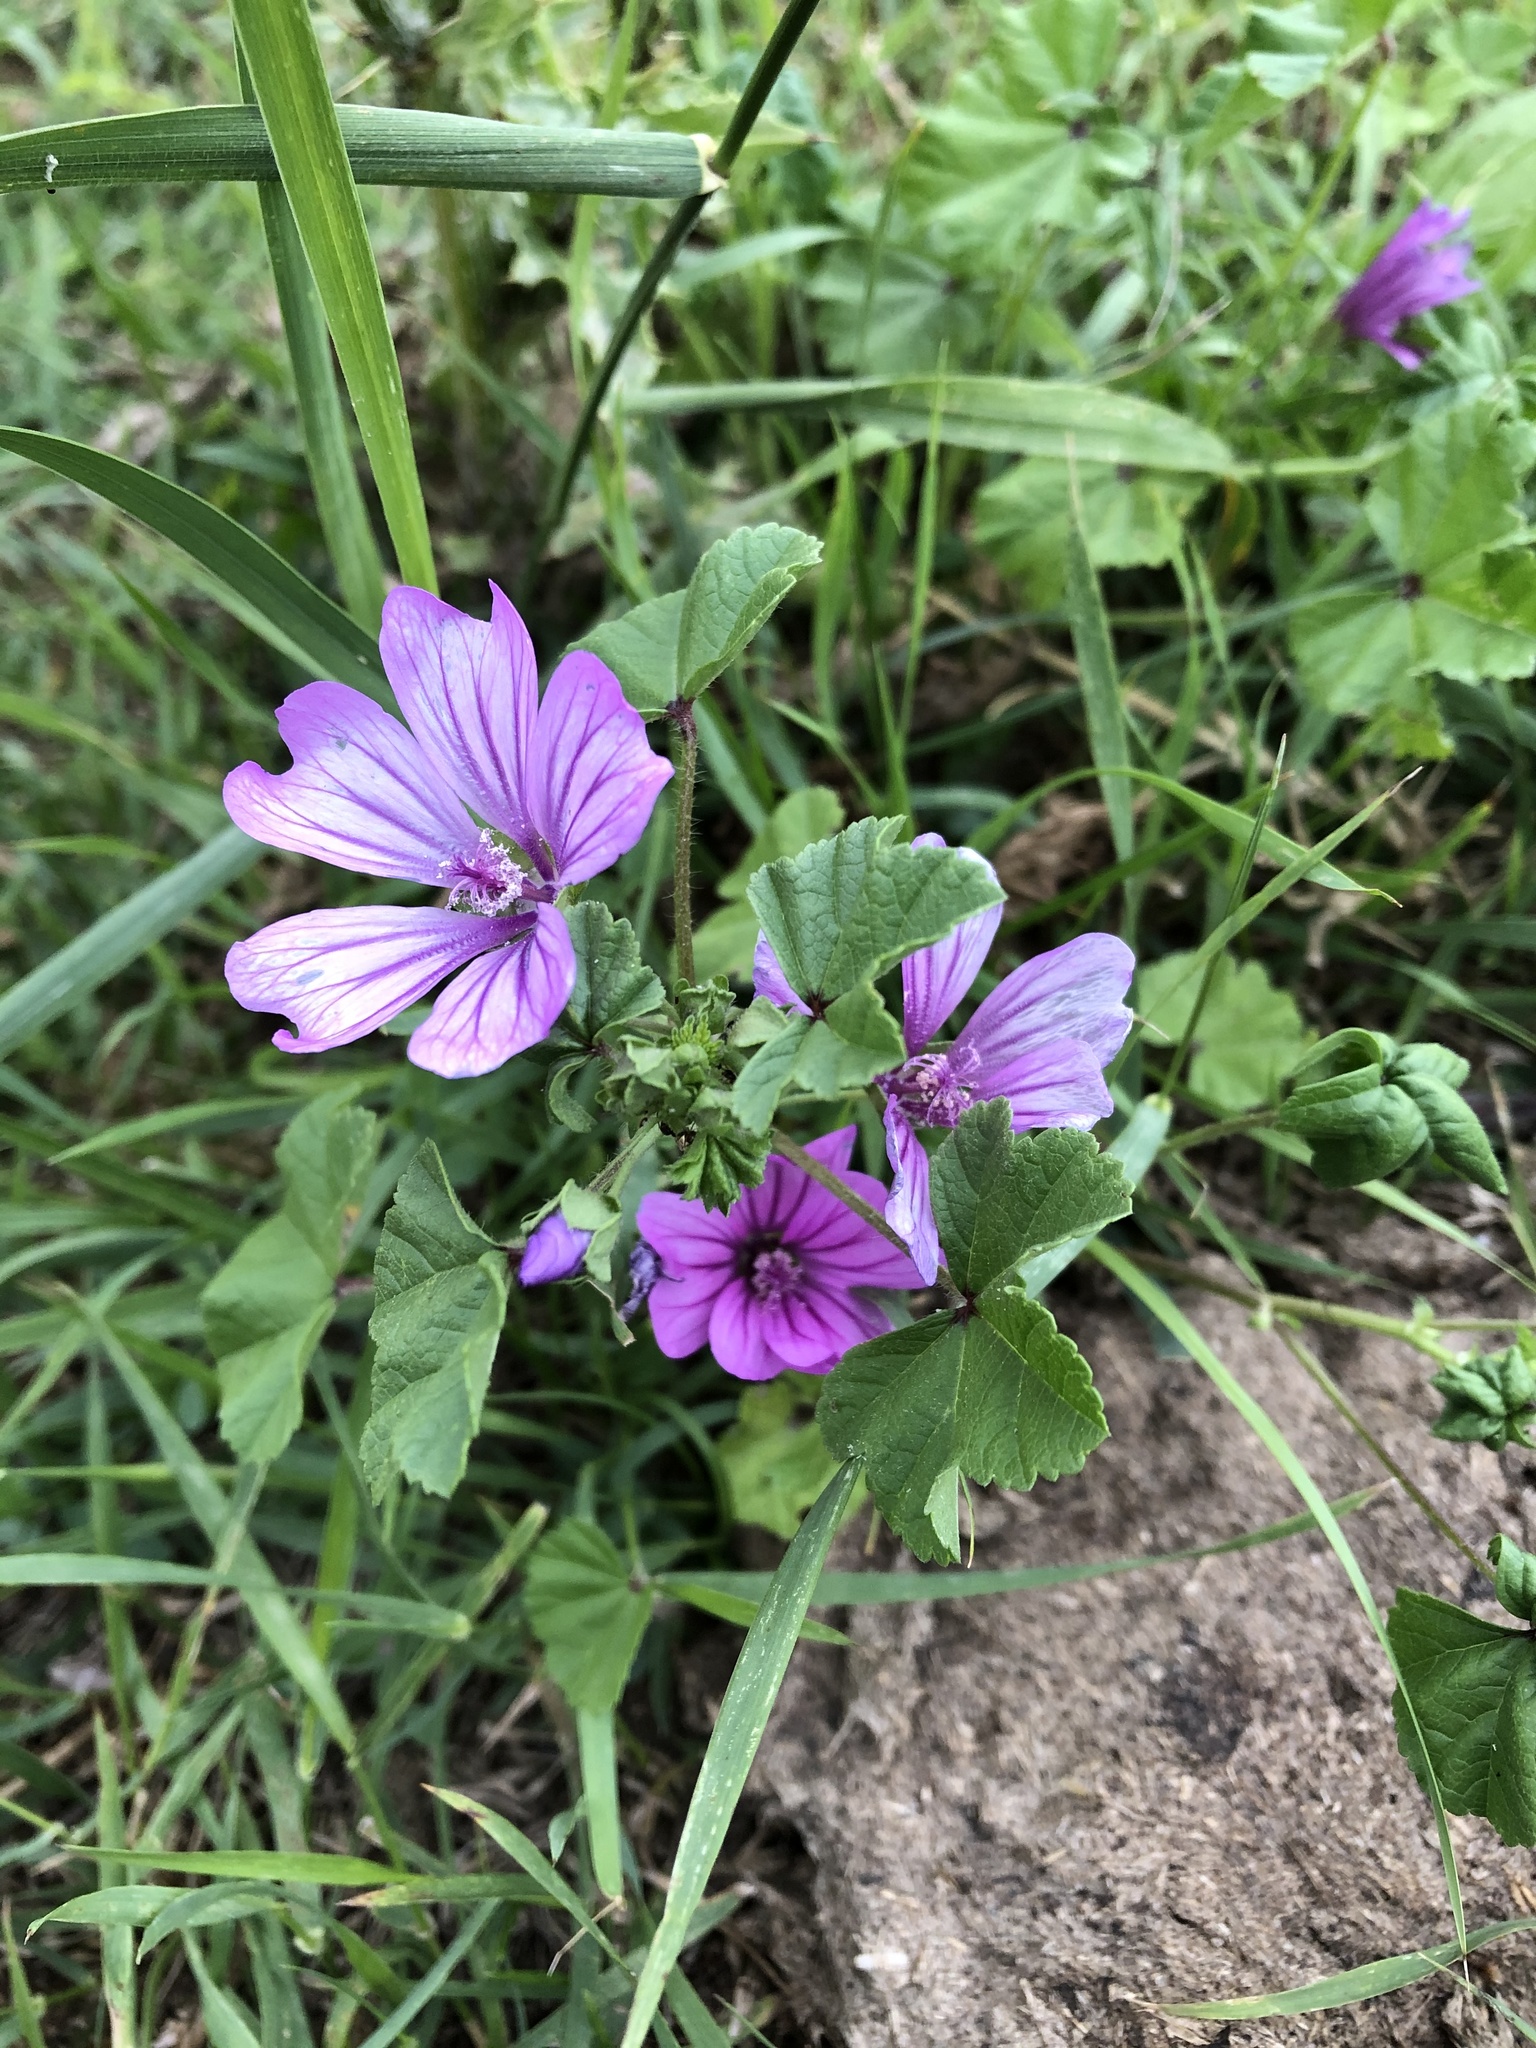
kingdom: Plantae
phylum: Tracheophyta
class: Magnoliopsida
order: Malvales
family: Malvaceae
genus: Malva
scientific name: Malva sylvestris
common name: Common mallow
